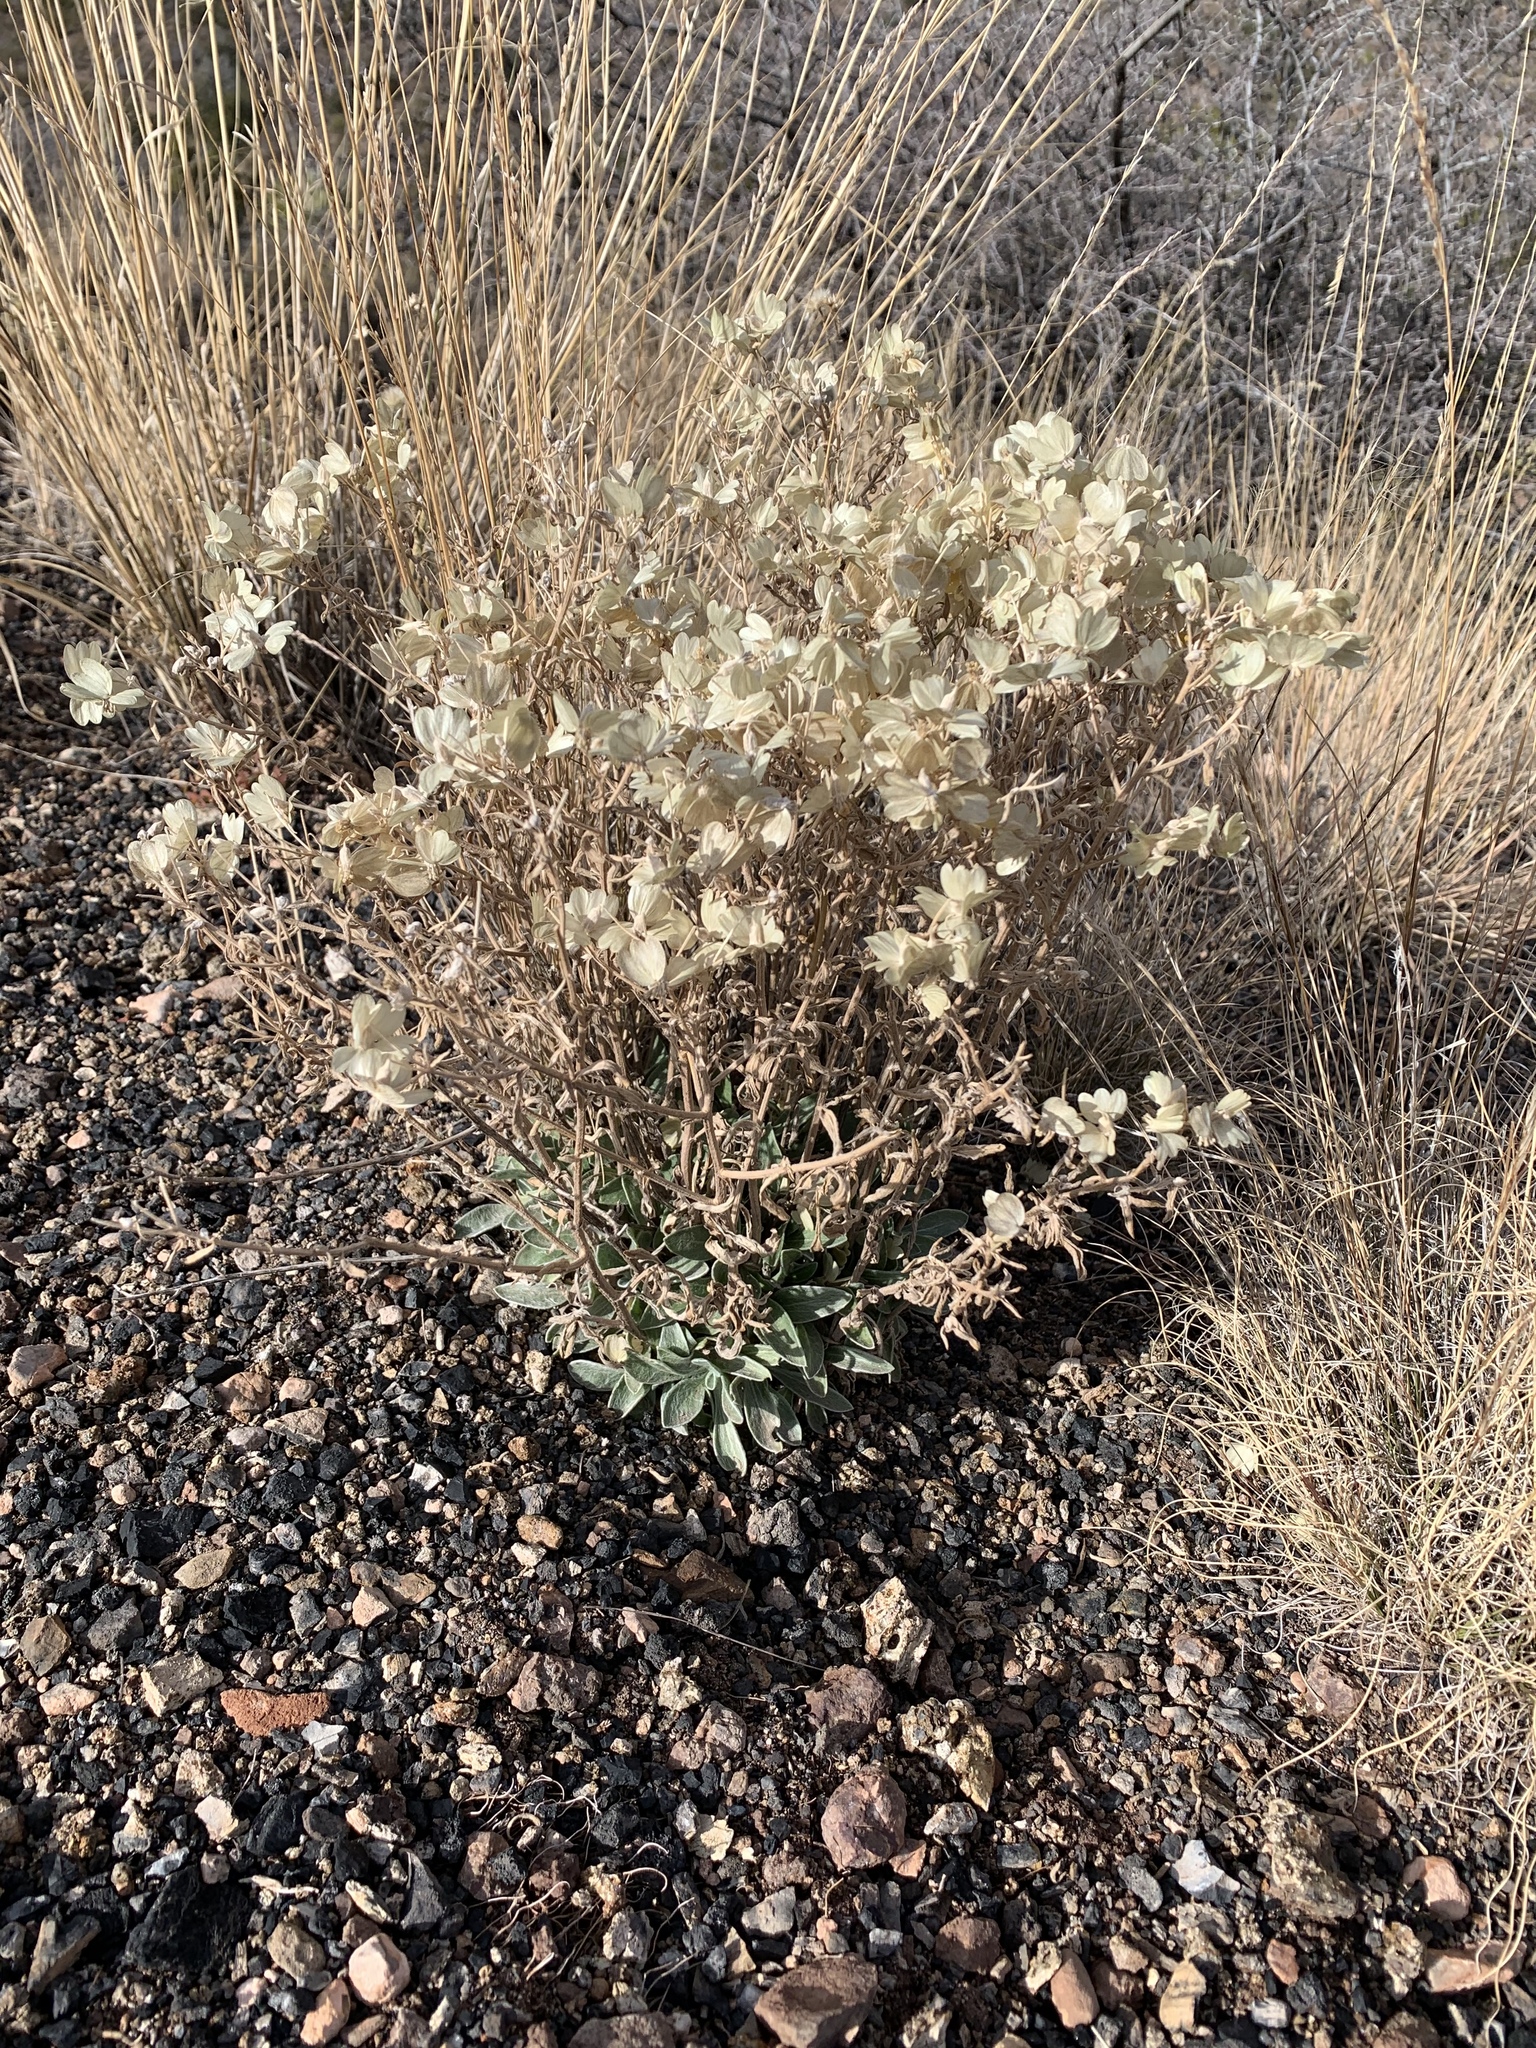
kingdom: Plantae
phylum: Tracheophyta
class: Magnoliopsida
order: Asterales
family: Asteraceae
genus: Psilostrophe
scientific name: Psilostrophe tagetina
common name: Marigold paper-flower
